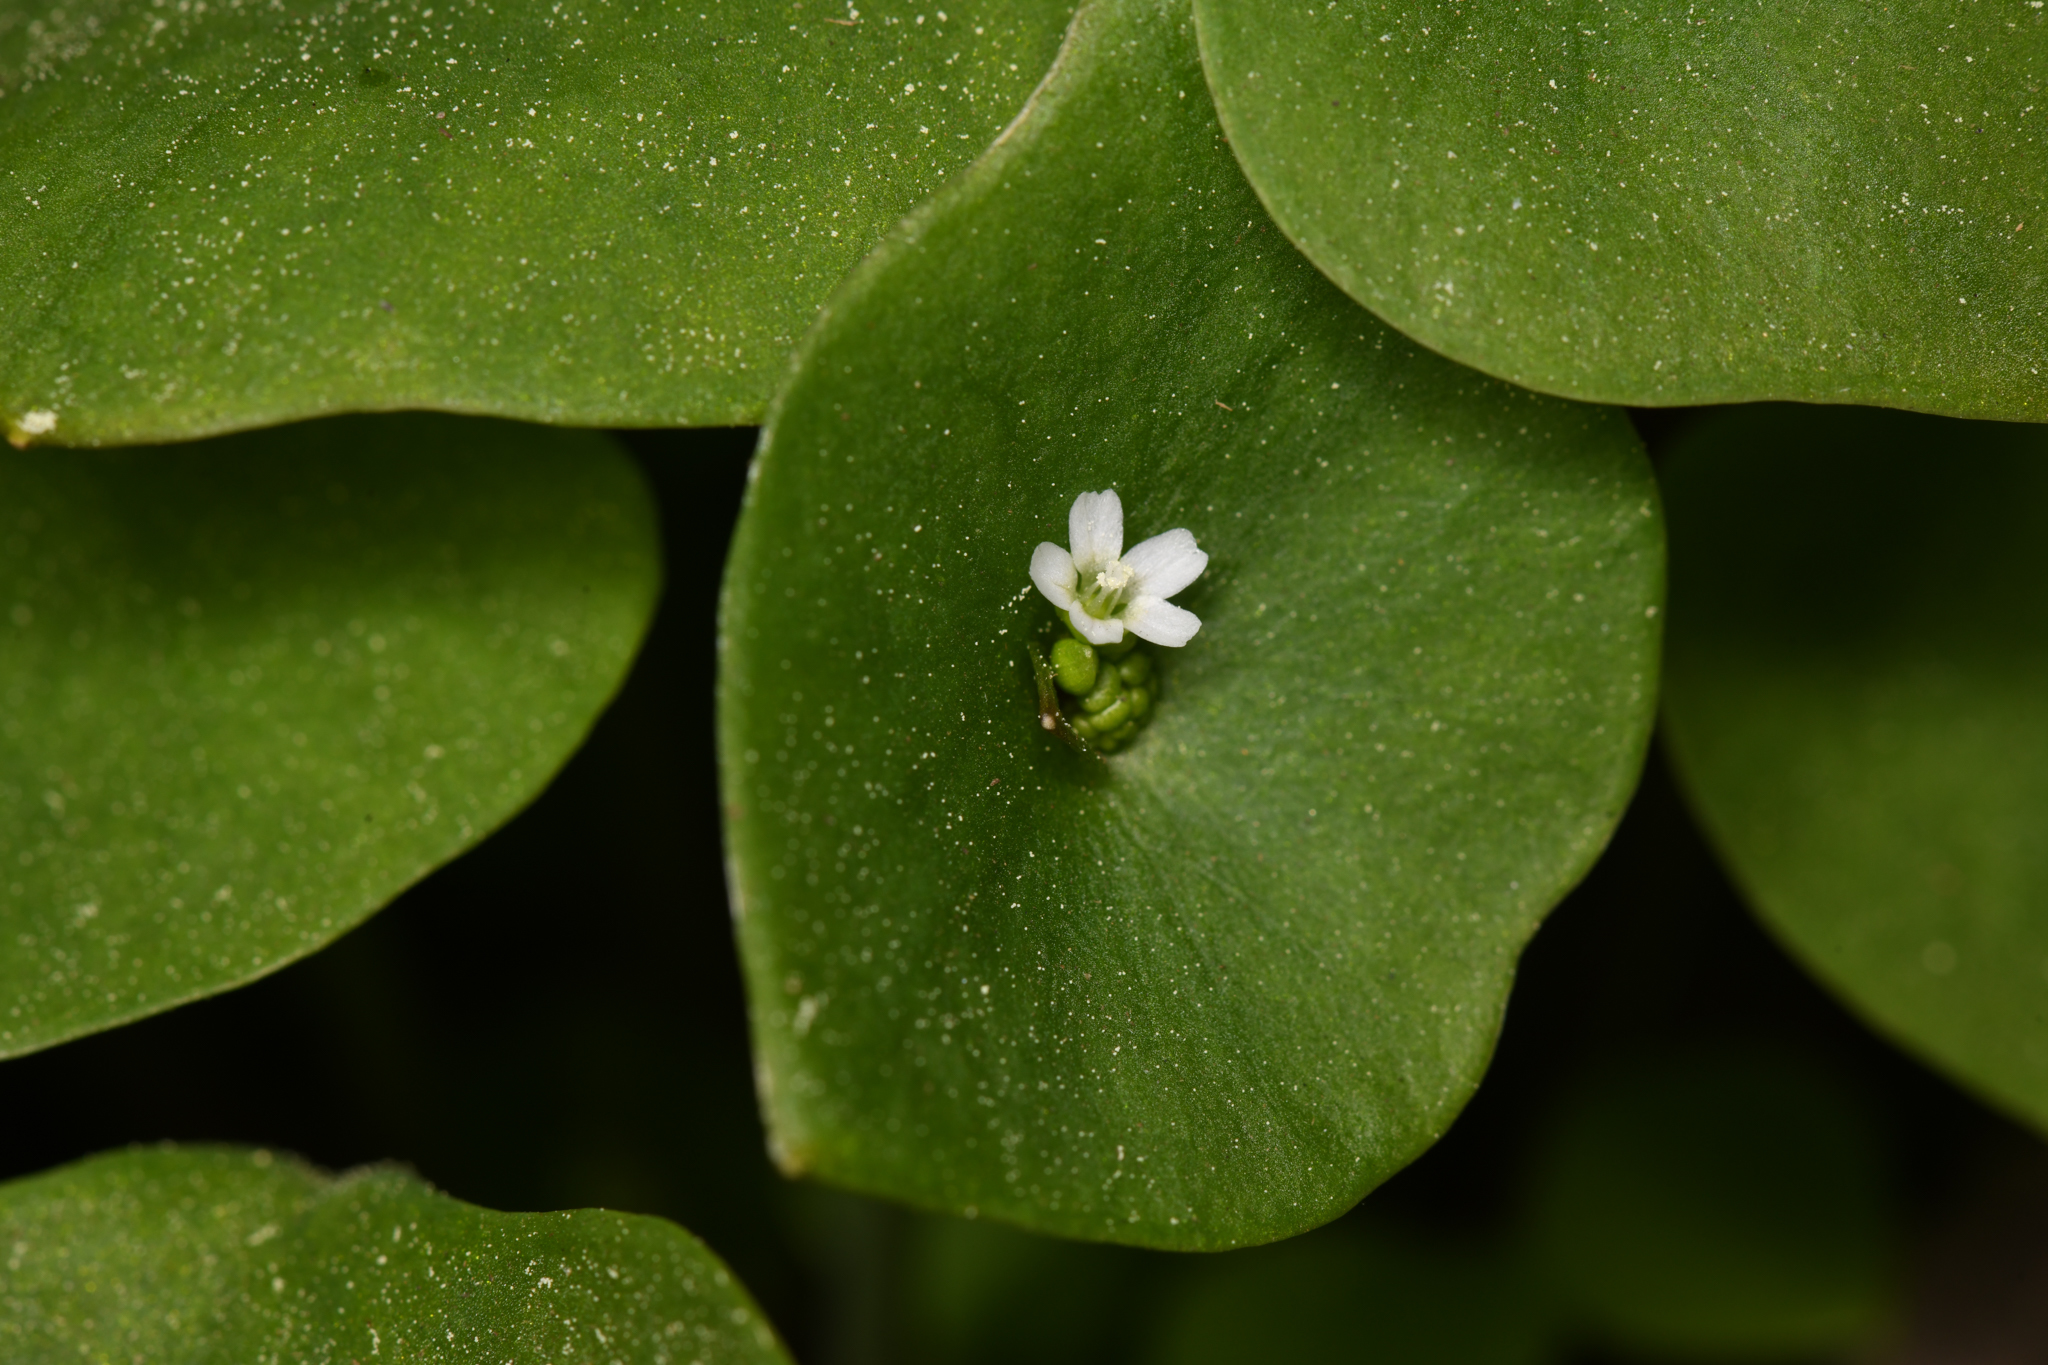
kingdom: Plantae
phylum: Tracheophyta
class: Magnoliopsida
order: Caryophyllales
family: Montiaceae
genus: Claytonia
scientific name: Claytonia perfoliata
